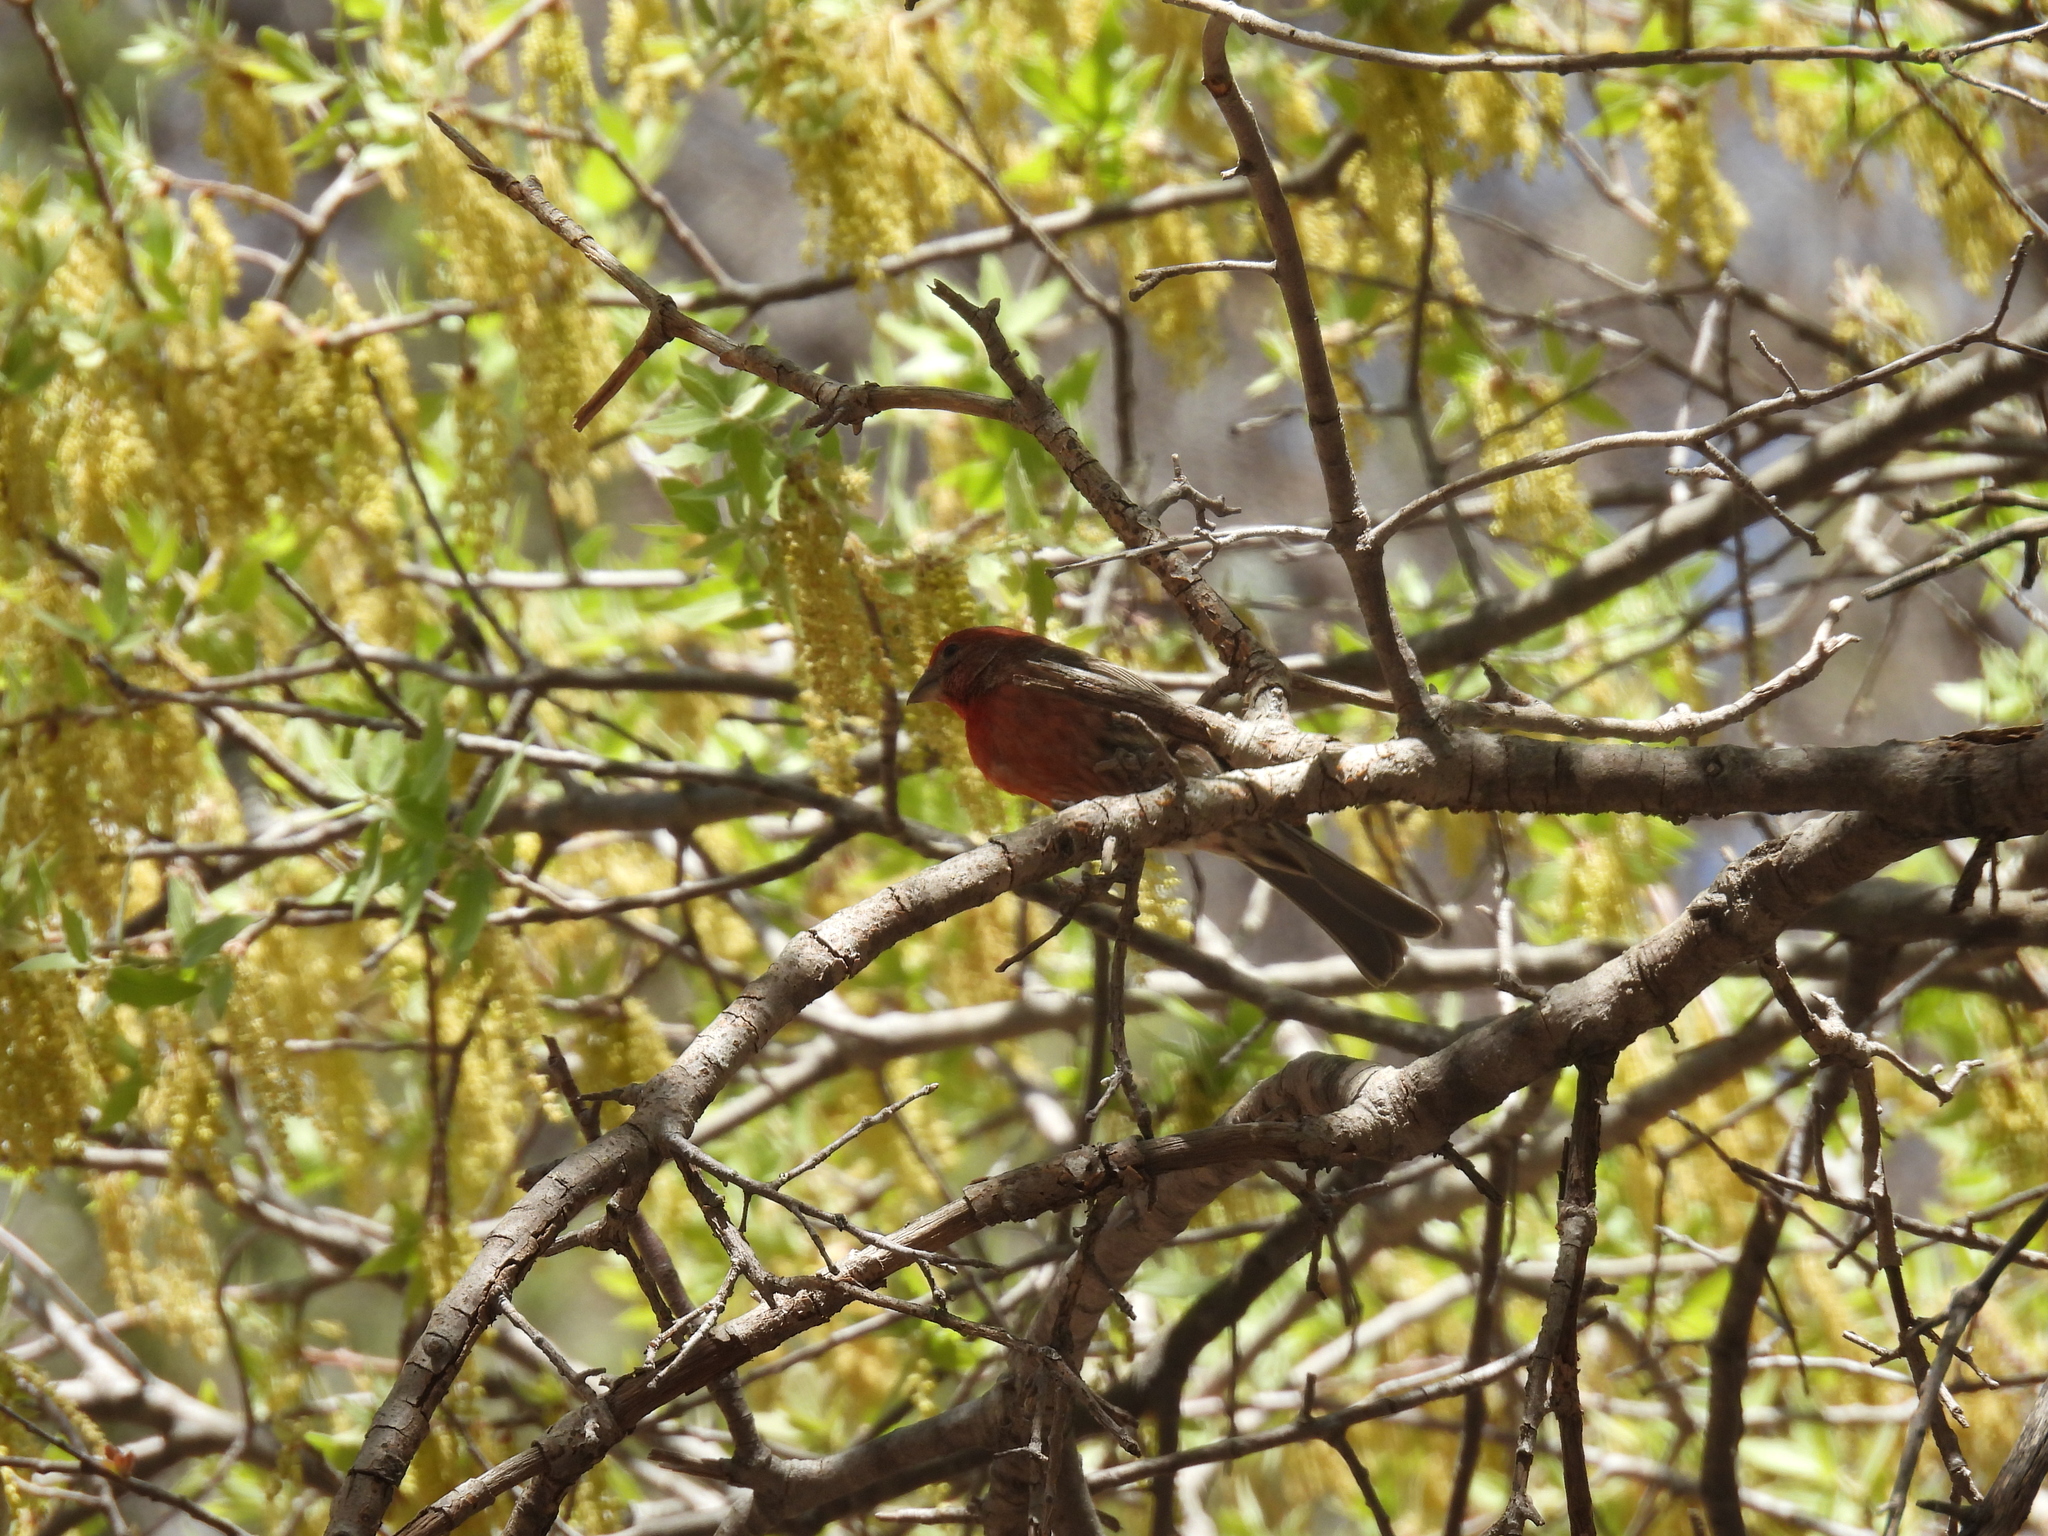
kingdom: Animalia
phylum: Chordata
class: Aves
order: Passeriformes
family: Fringillidae
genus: Haemorhous
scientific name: Haemorhous mexicanus
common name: House finch
